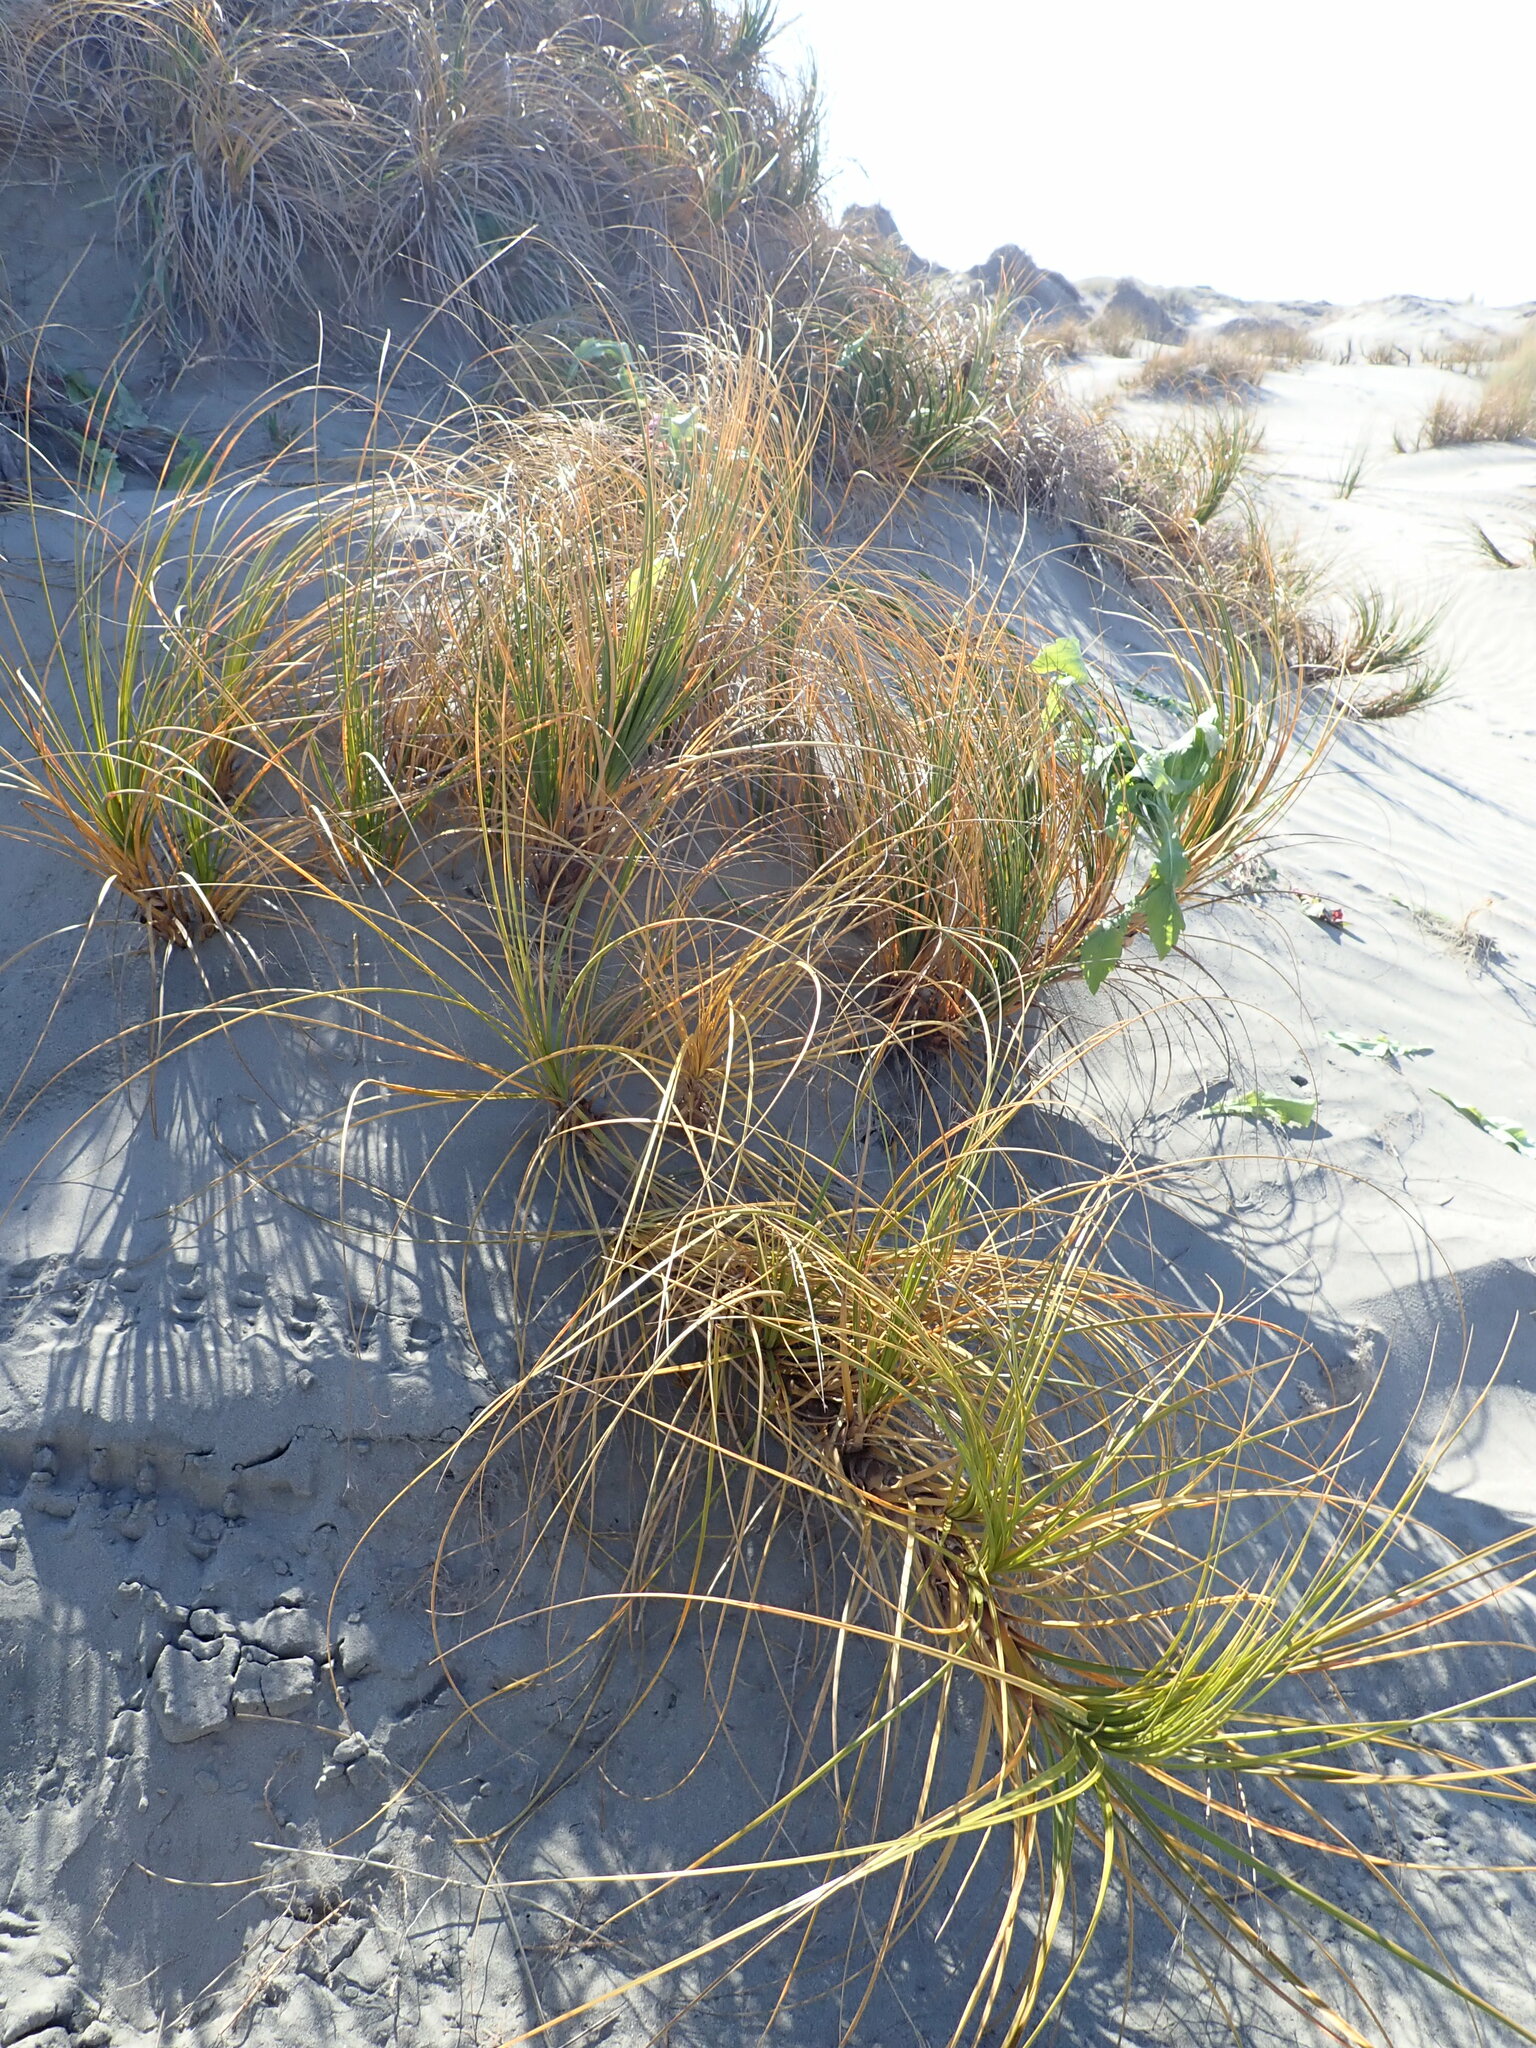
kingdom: Plantae
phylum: Tracheophyta
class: Liliopsida
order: Poales
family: Cyperaceae
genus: Ficinia
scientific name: Ficinia spiralis
